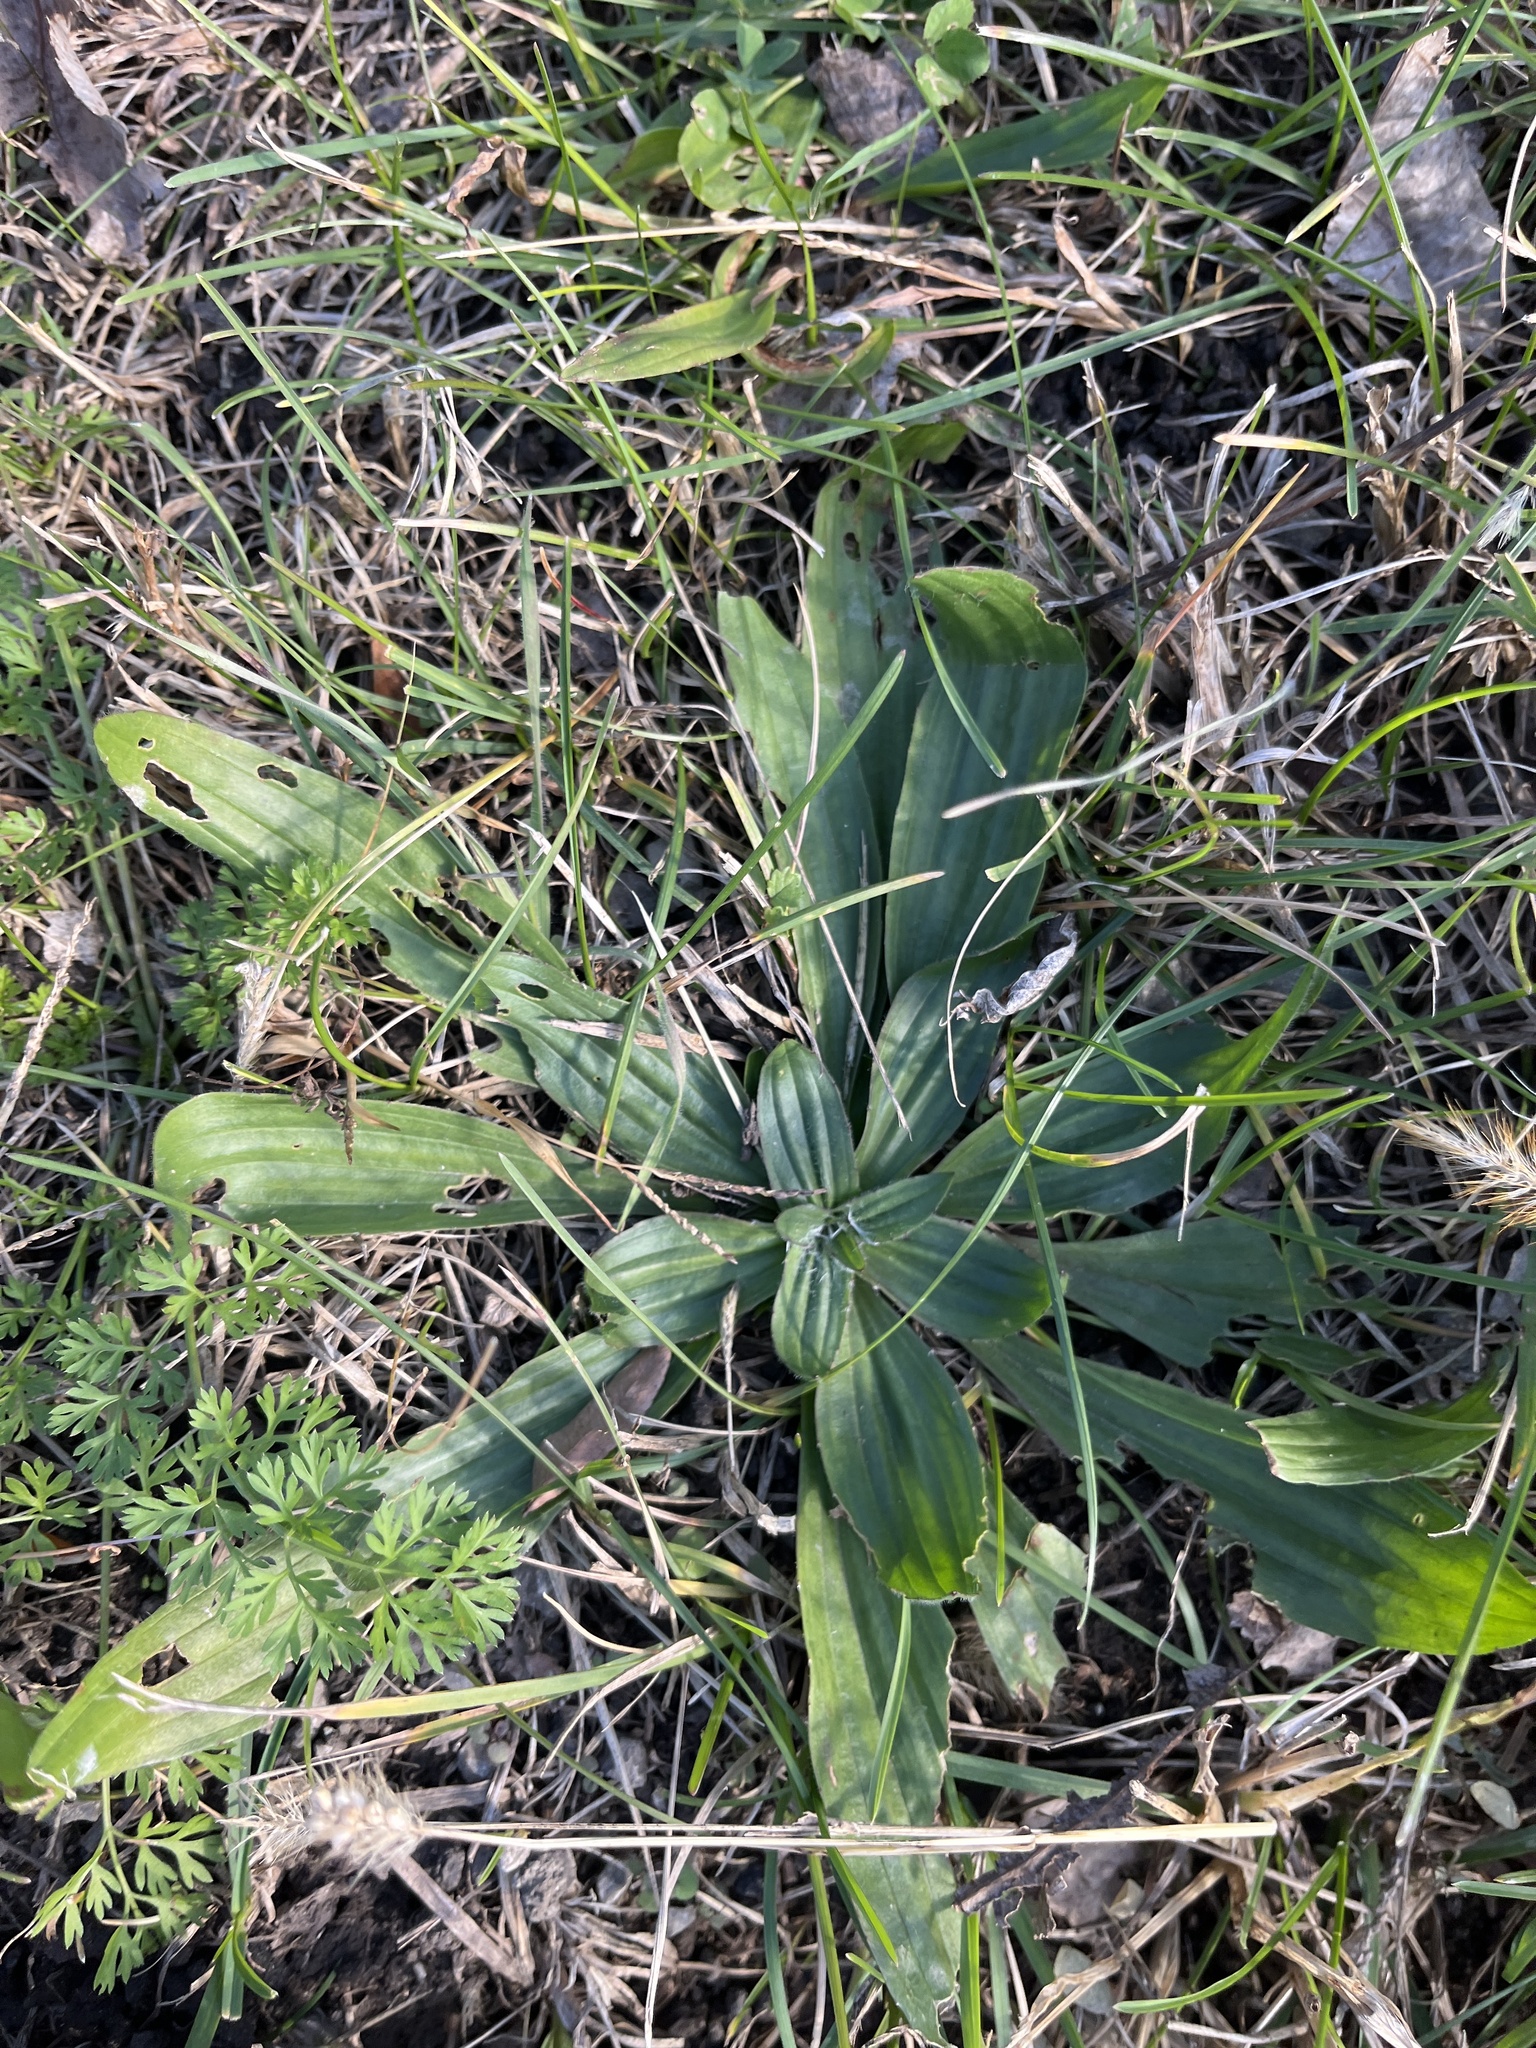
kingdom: Plantae
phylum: Tracheophyta
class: Magnoliopsida
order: Lamiales
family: Plantaginaceae
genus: Plantago
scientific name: Plantago lanceolata
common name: Ribwort plantain
